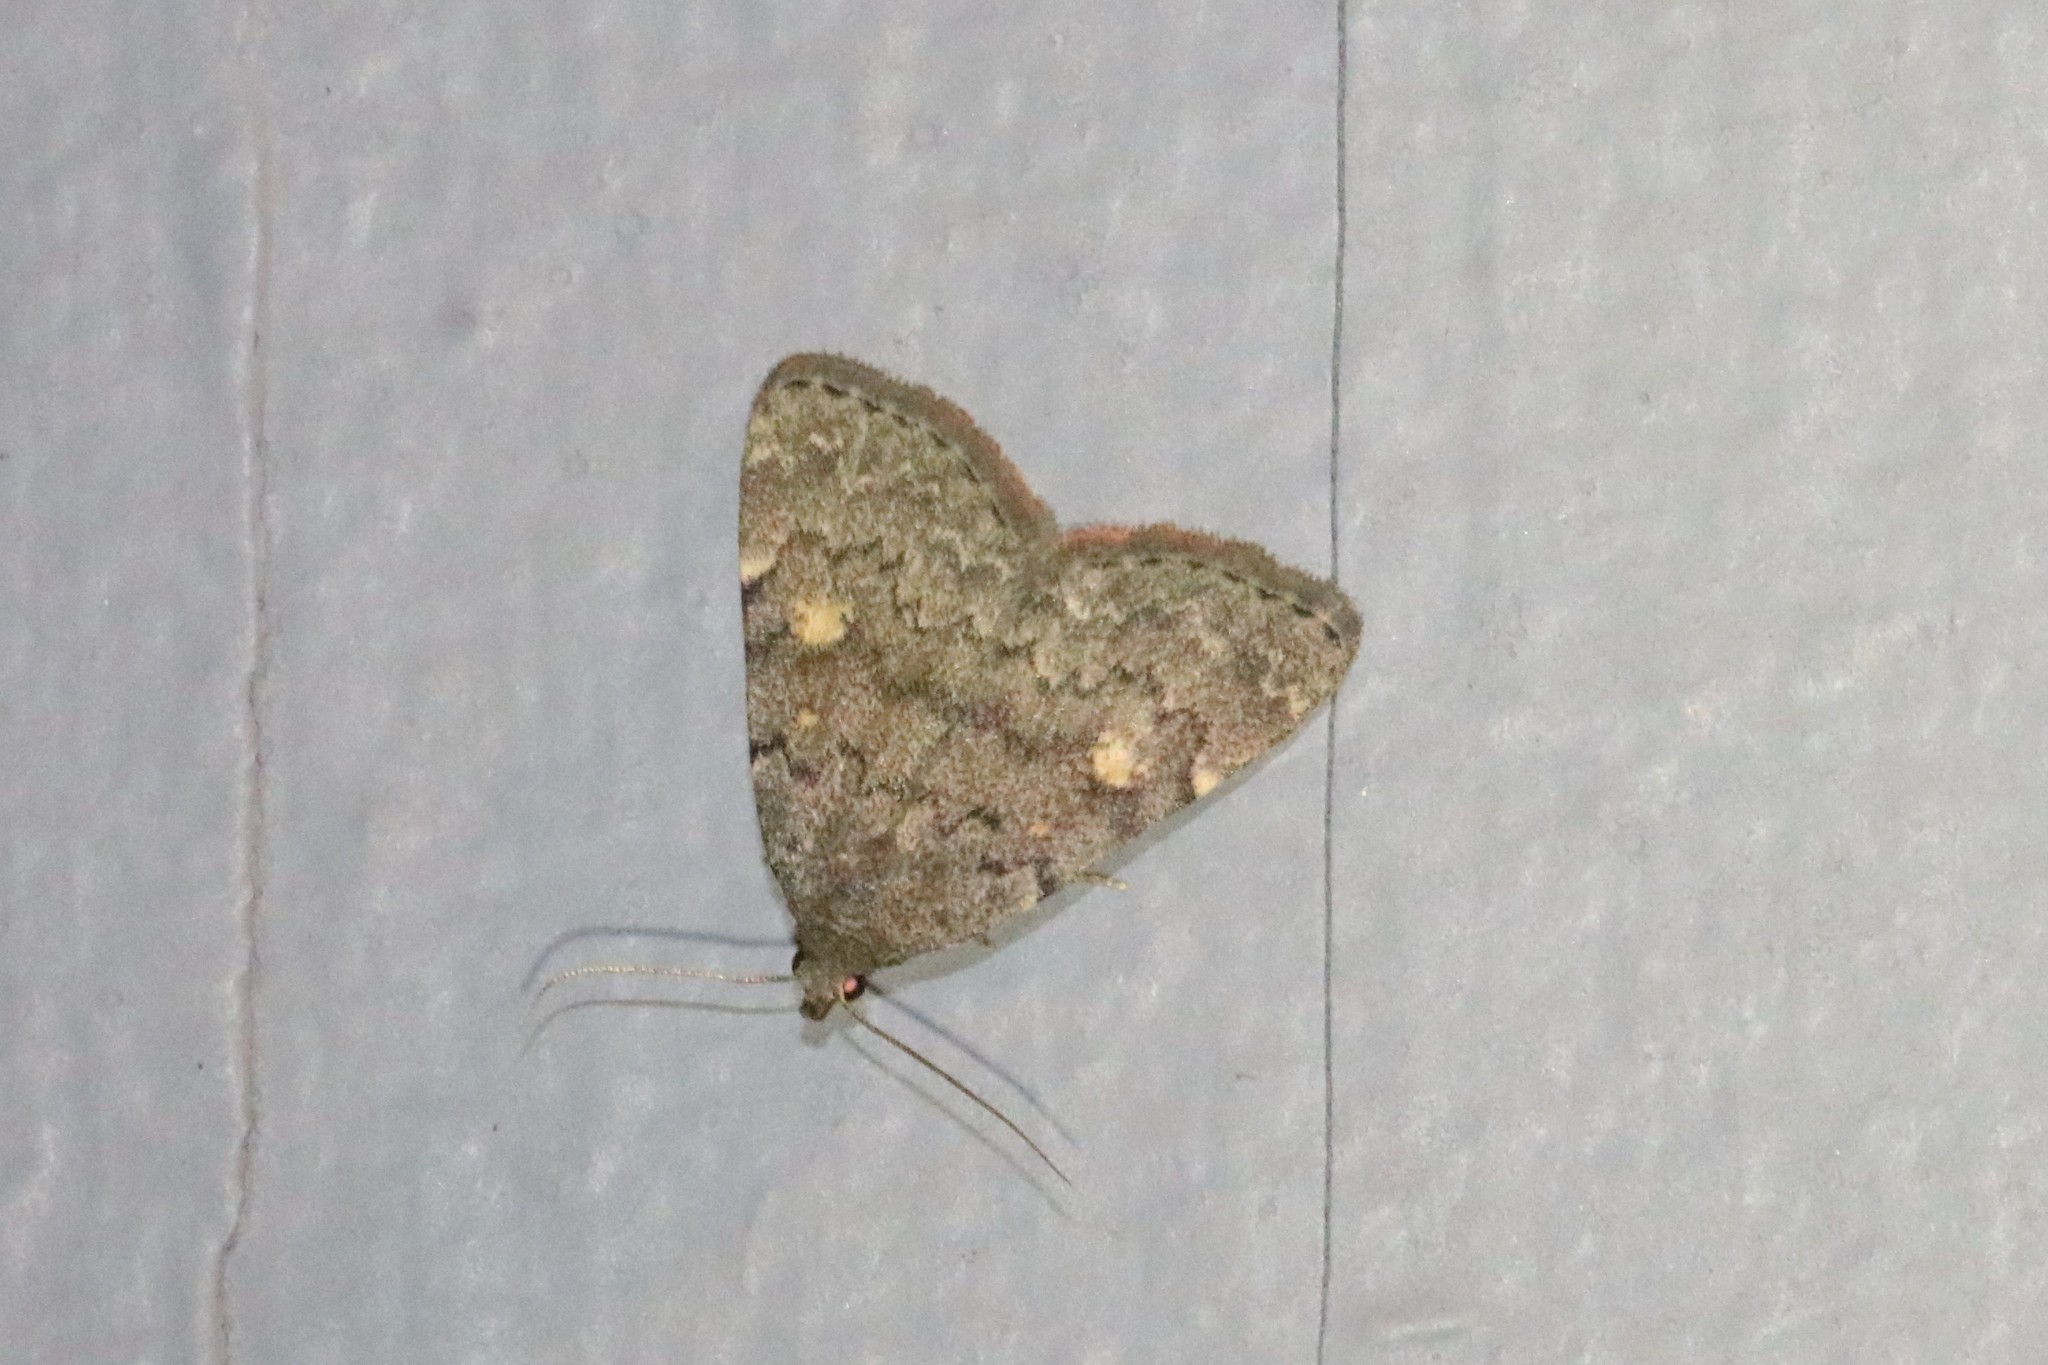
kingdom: Animalia
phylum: Arthropoda
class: Insecta
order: Lepidoptera
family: Erebidae
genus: Idia
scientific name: Idia aemula
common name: Common idia moth
